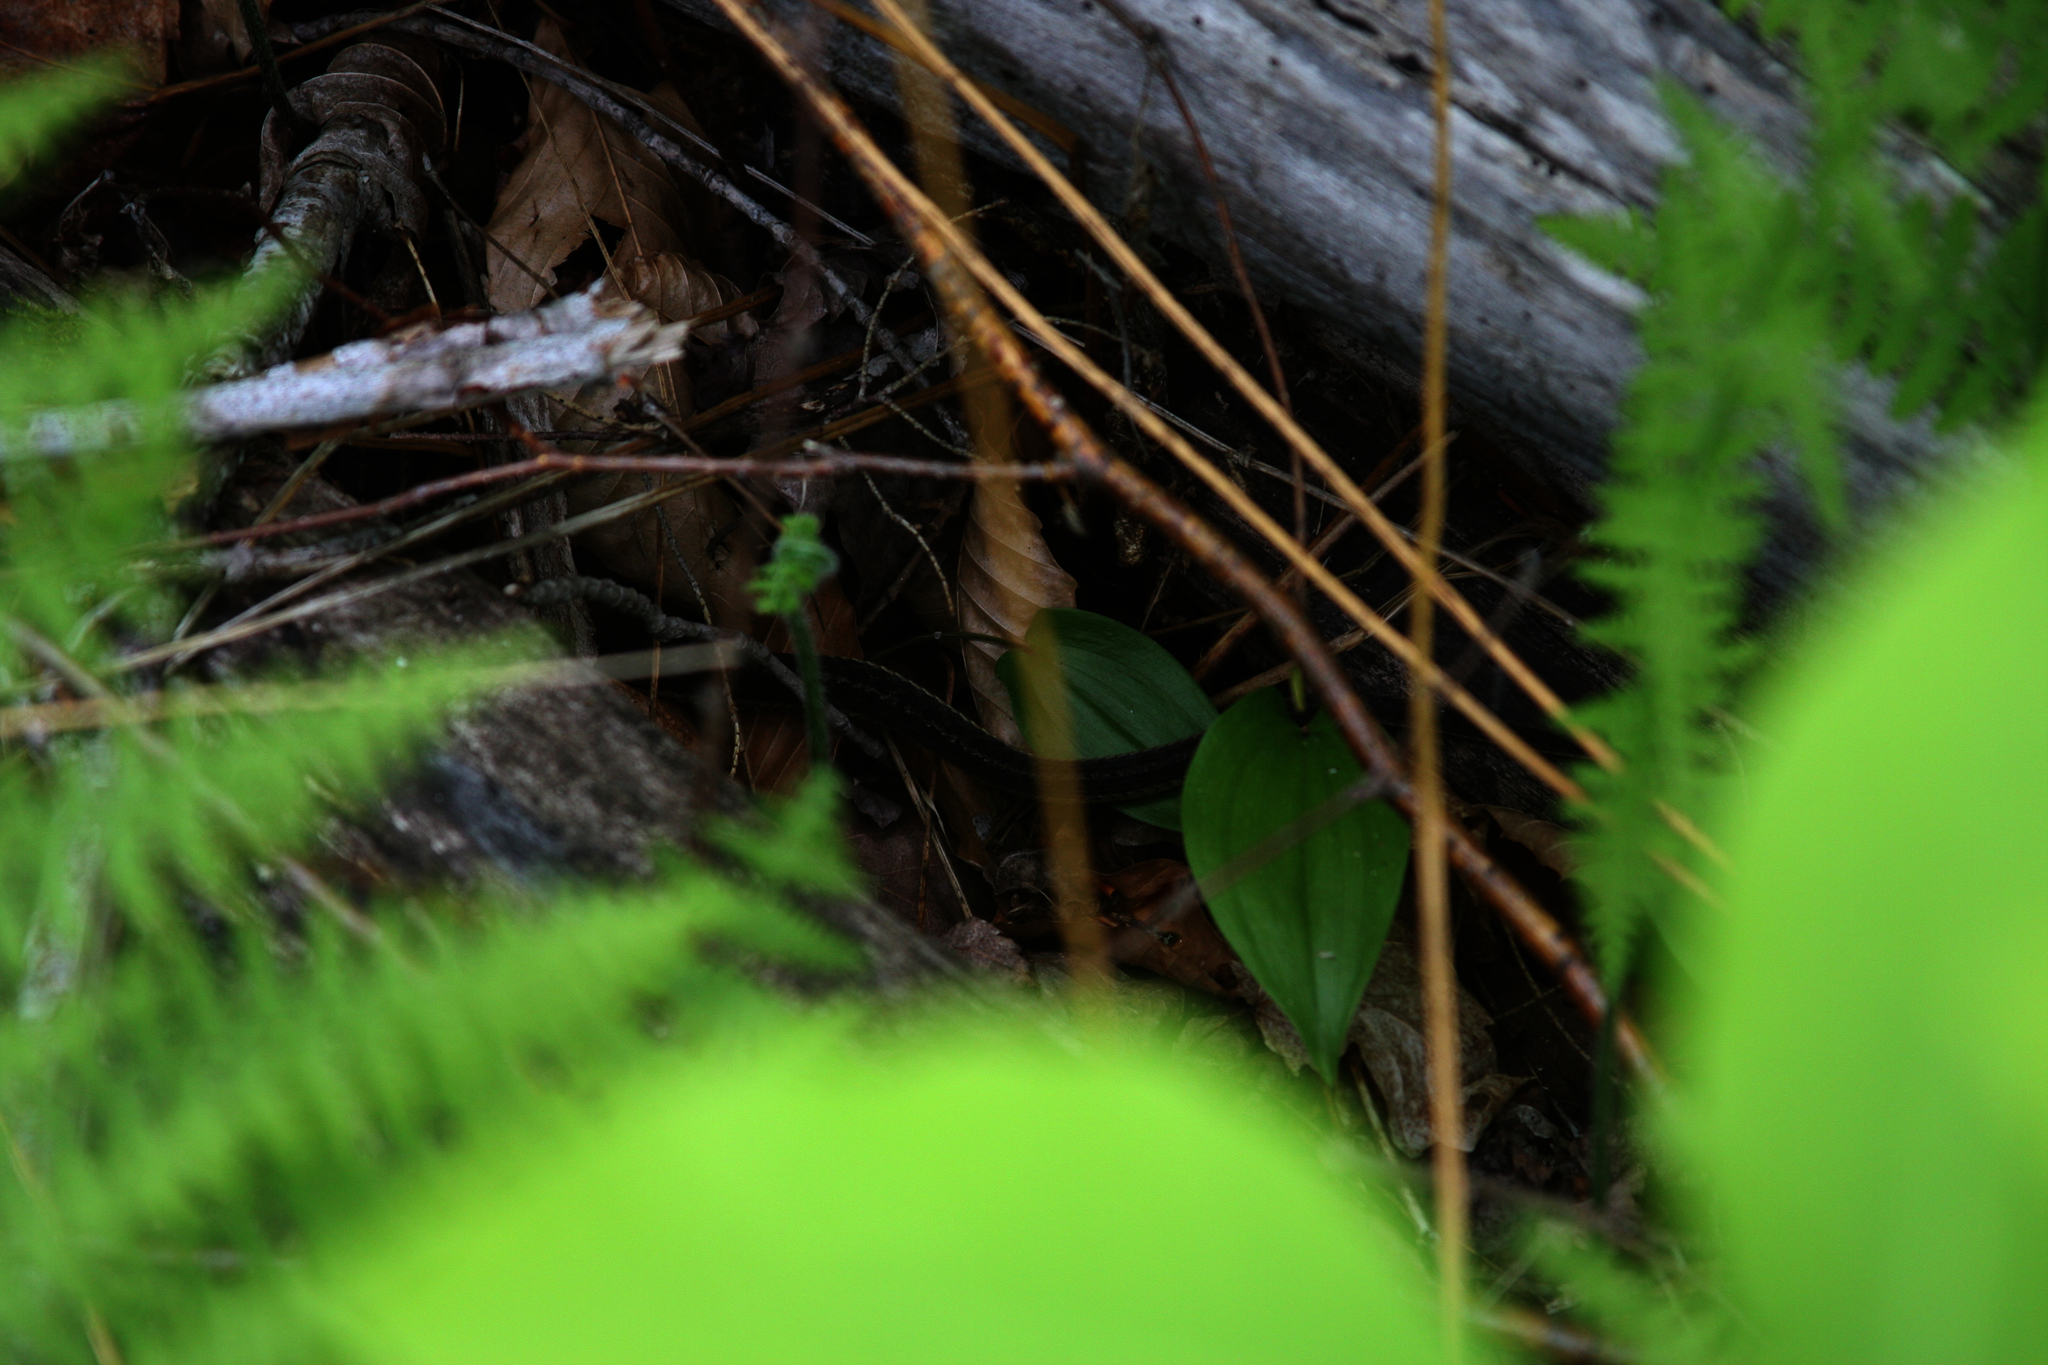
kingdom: Plantae
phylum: Tracheophyta
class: Liliopsida
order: Asparagales
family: Asparagaceae
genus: Maianthemum
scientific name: Maianthemum canadense
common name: False lily-of-the-valley
